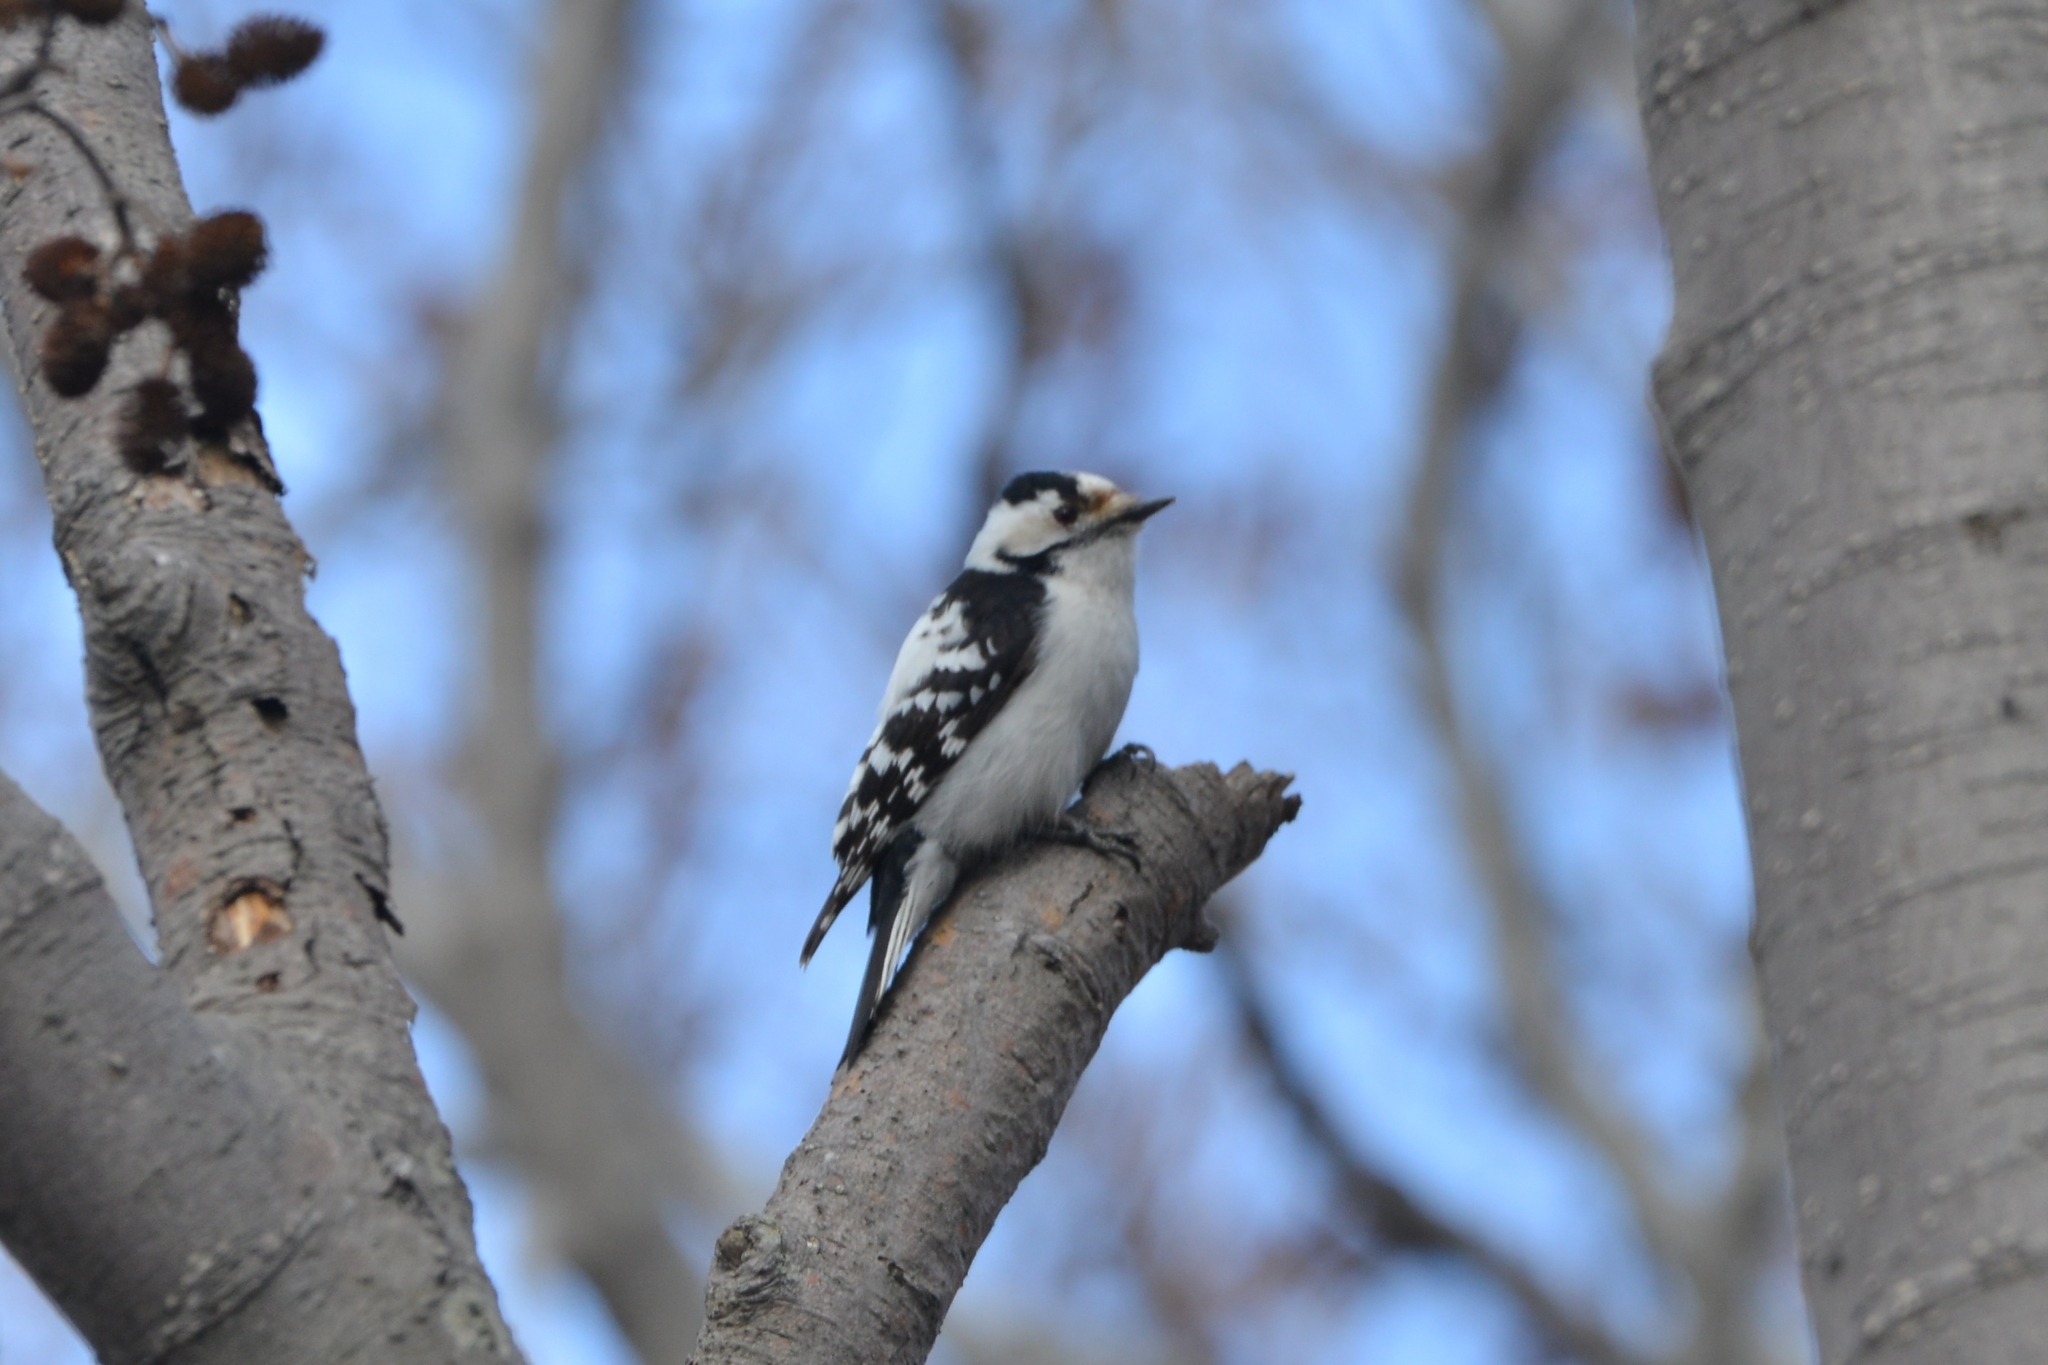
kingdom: Animalia
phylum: Chordata
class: Aves
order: Piciformes
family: Picidae
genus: Dryobates
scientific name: Dryobates minor
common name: Lesser spotted woodpecker
